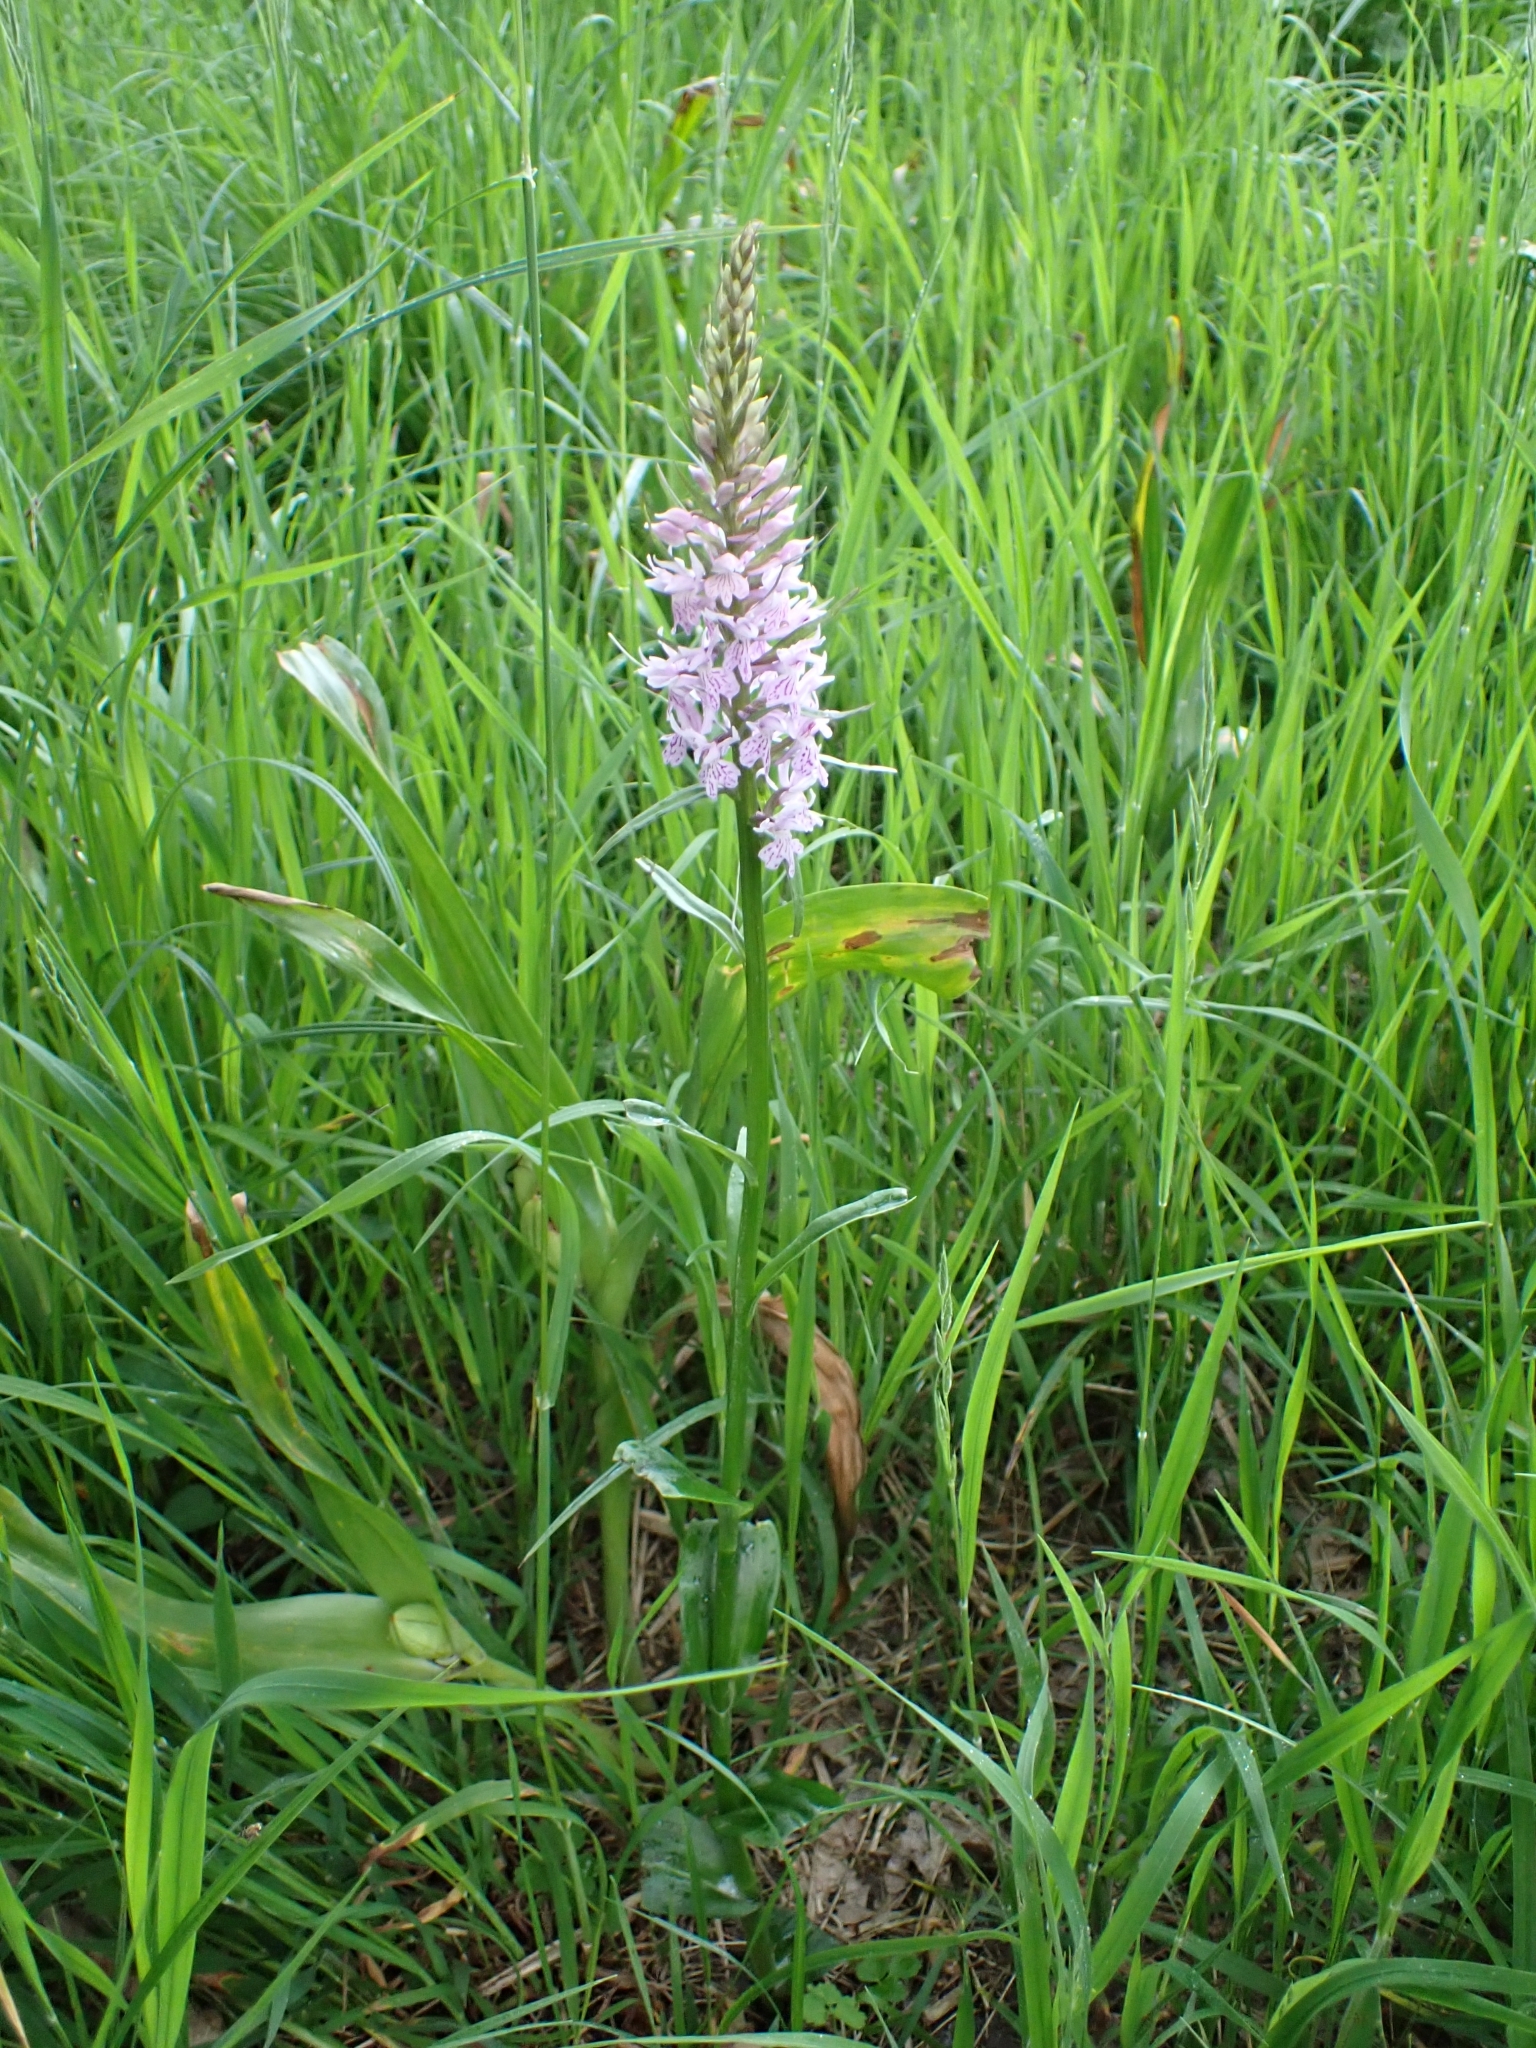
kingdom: Plantae
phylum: Tracheophyta
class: Liliopsida
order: Asparagales
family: Orchidaceae
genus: Dactylorhiza
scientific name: Dactylorhiza maculata
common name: Heath spotted-orchid
